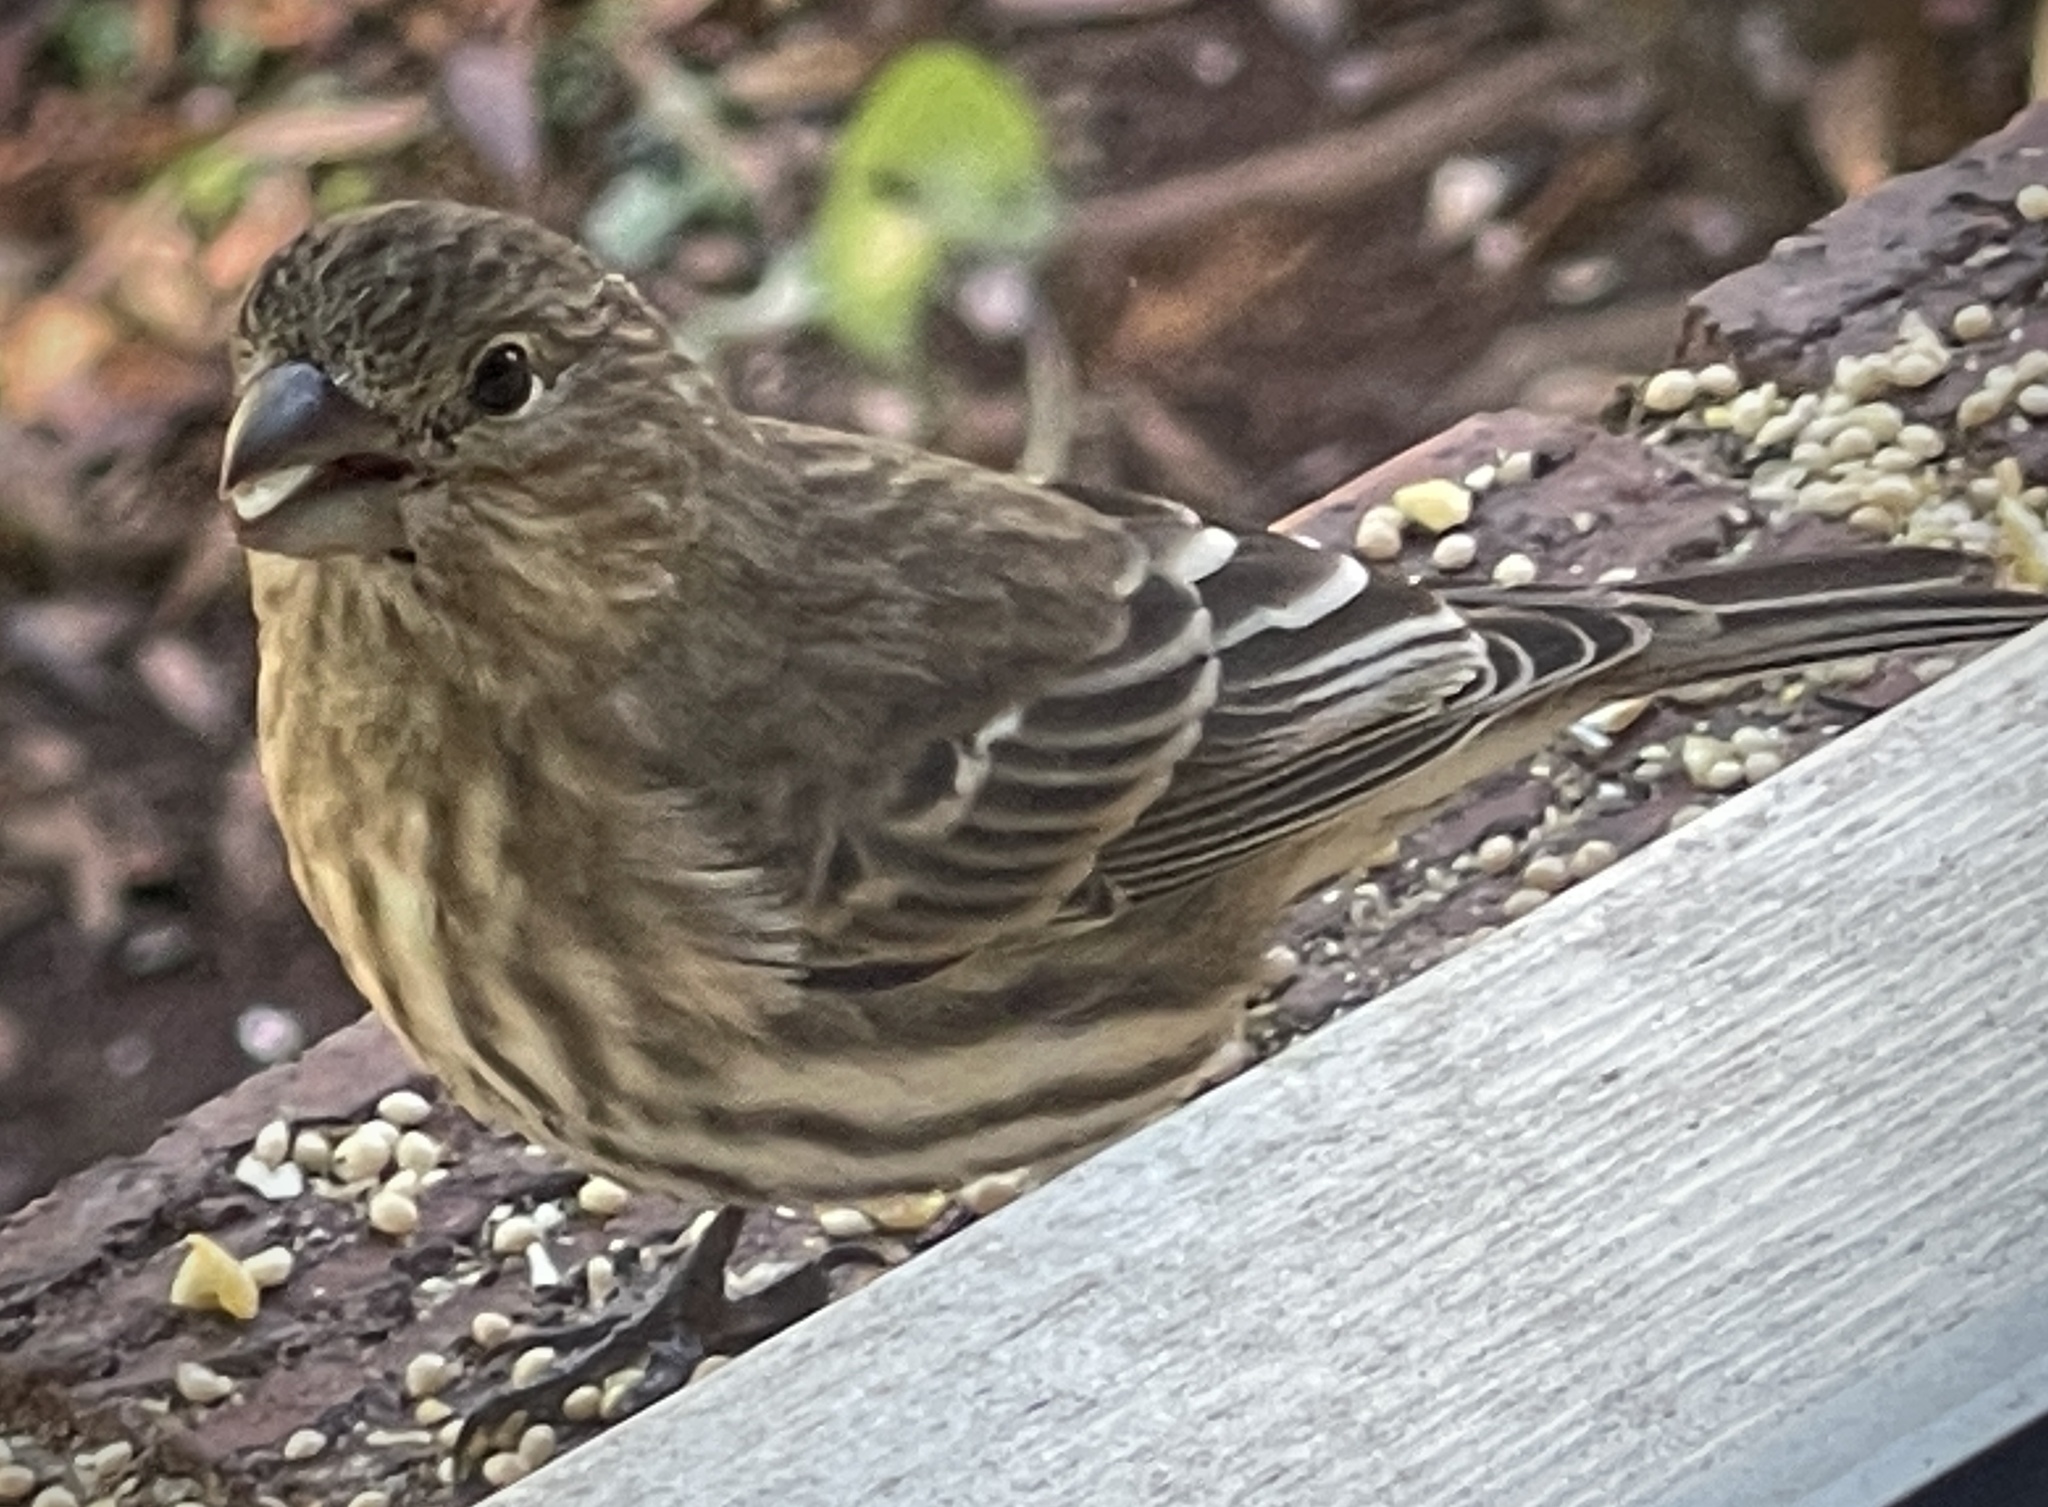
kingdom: Animalia
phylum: Chordata
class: Aves
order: Passeriformes
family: Fringillidae
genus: Haemorhous
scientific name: Haemorhous mexicanus
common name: House finch
